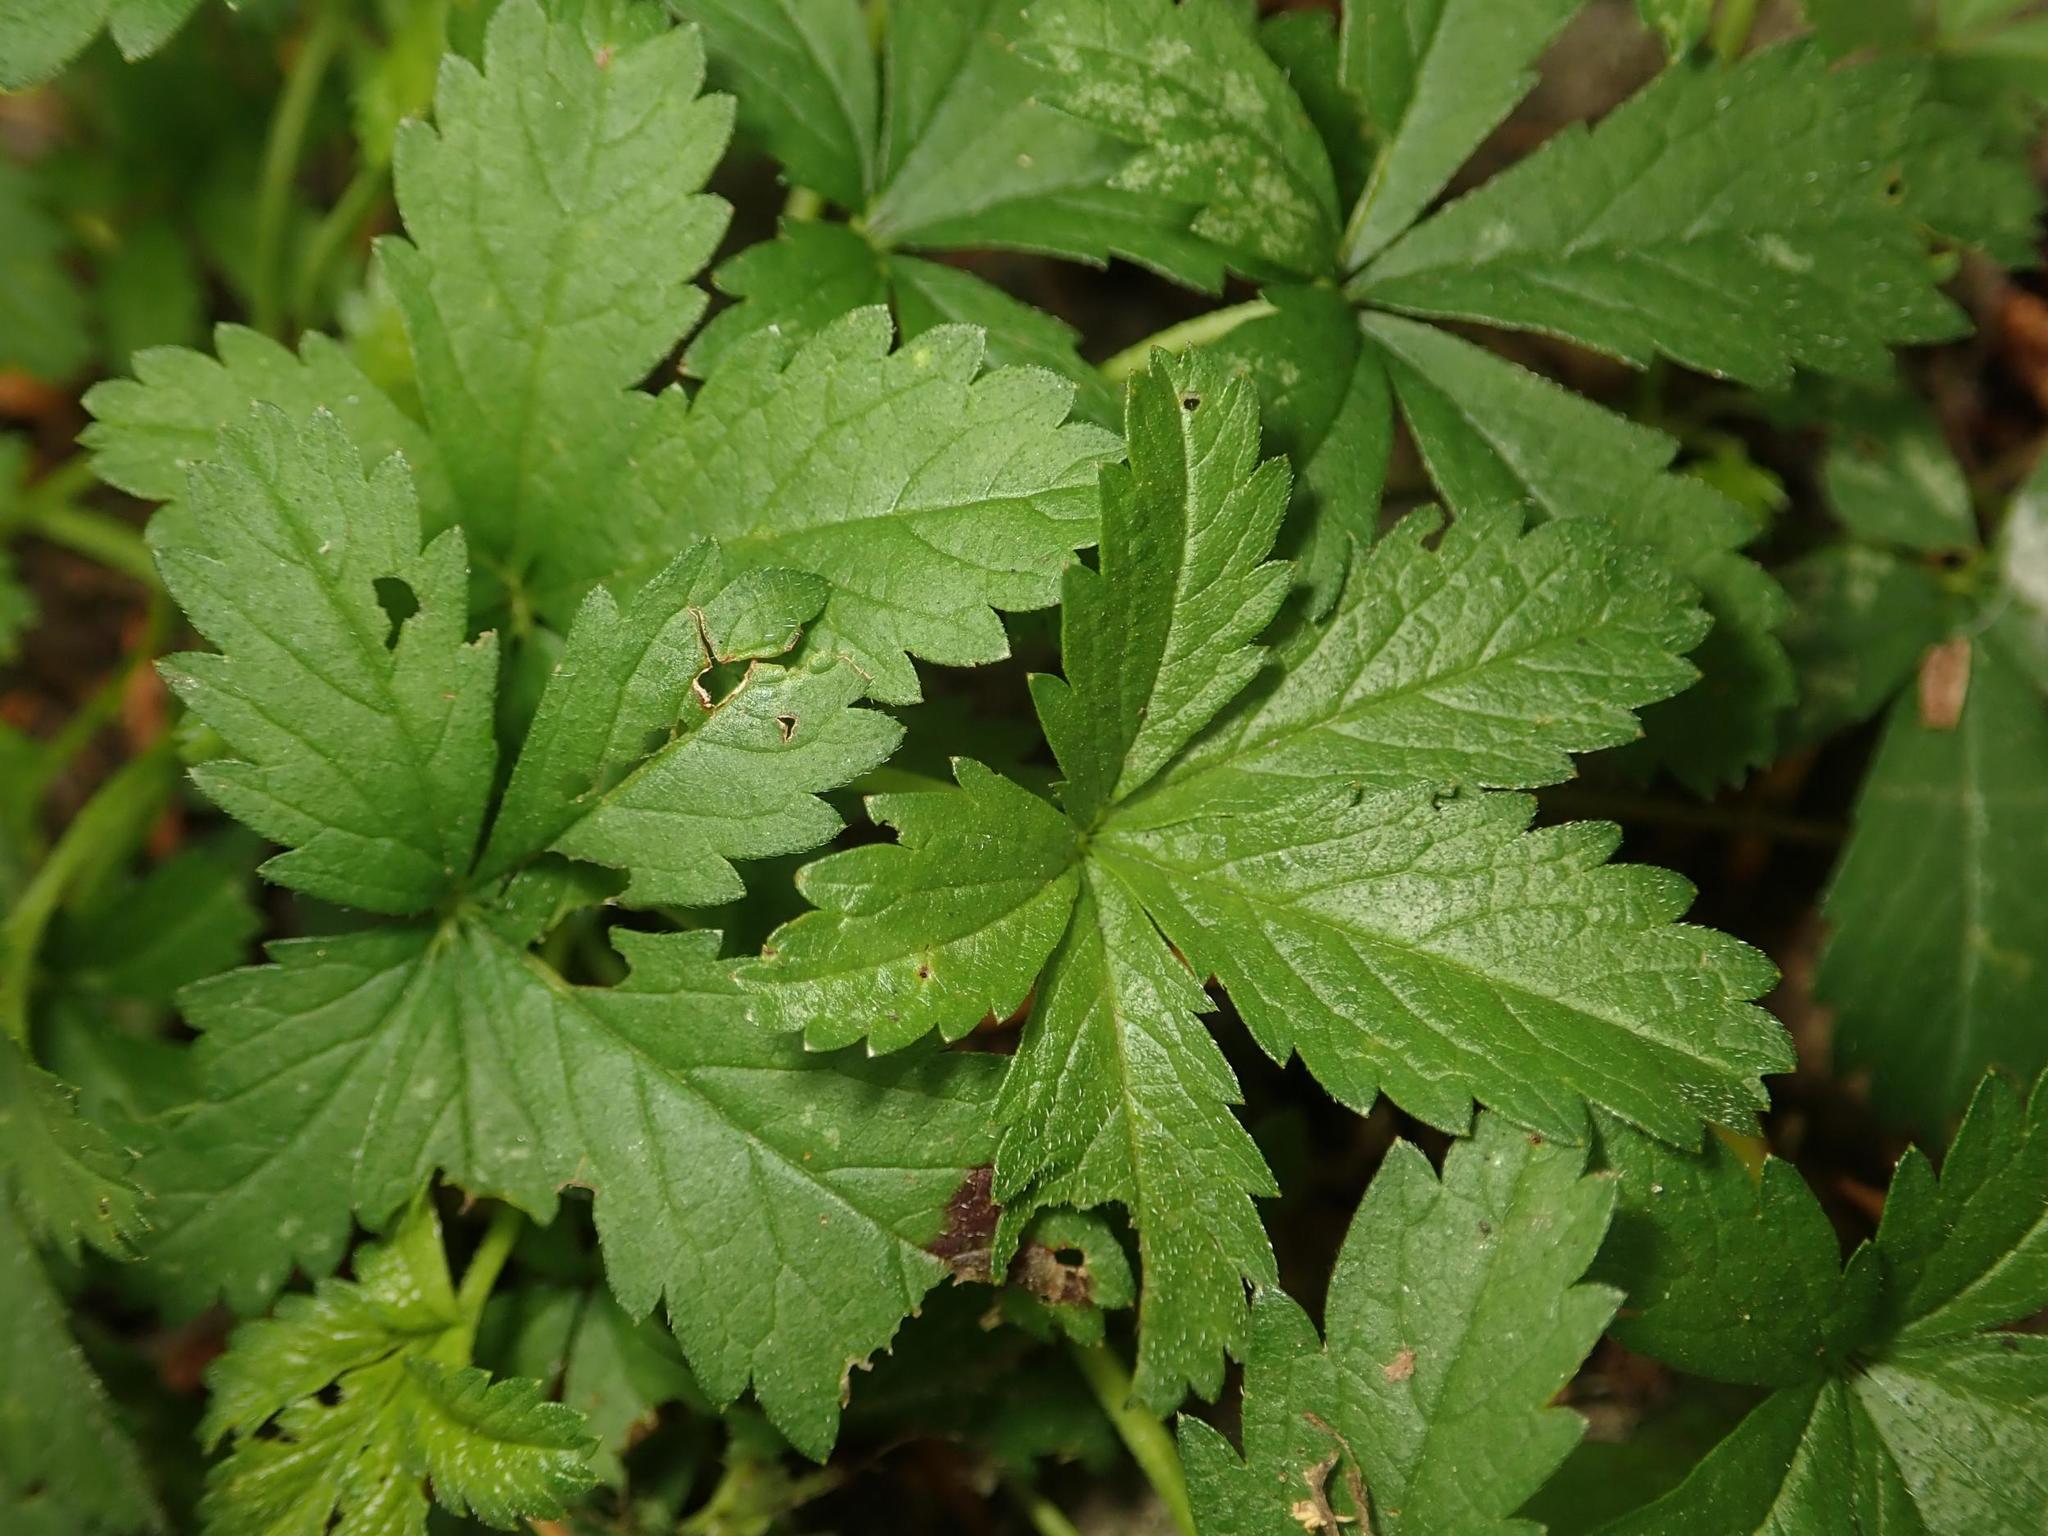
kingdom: Plantae
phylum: Tracheophyta
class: Magnoliopsida
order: Rosales
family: Rosaceae
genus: Potentilla
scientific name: Potentilla reptans
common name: Creeping cinquefoil
